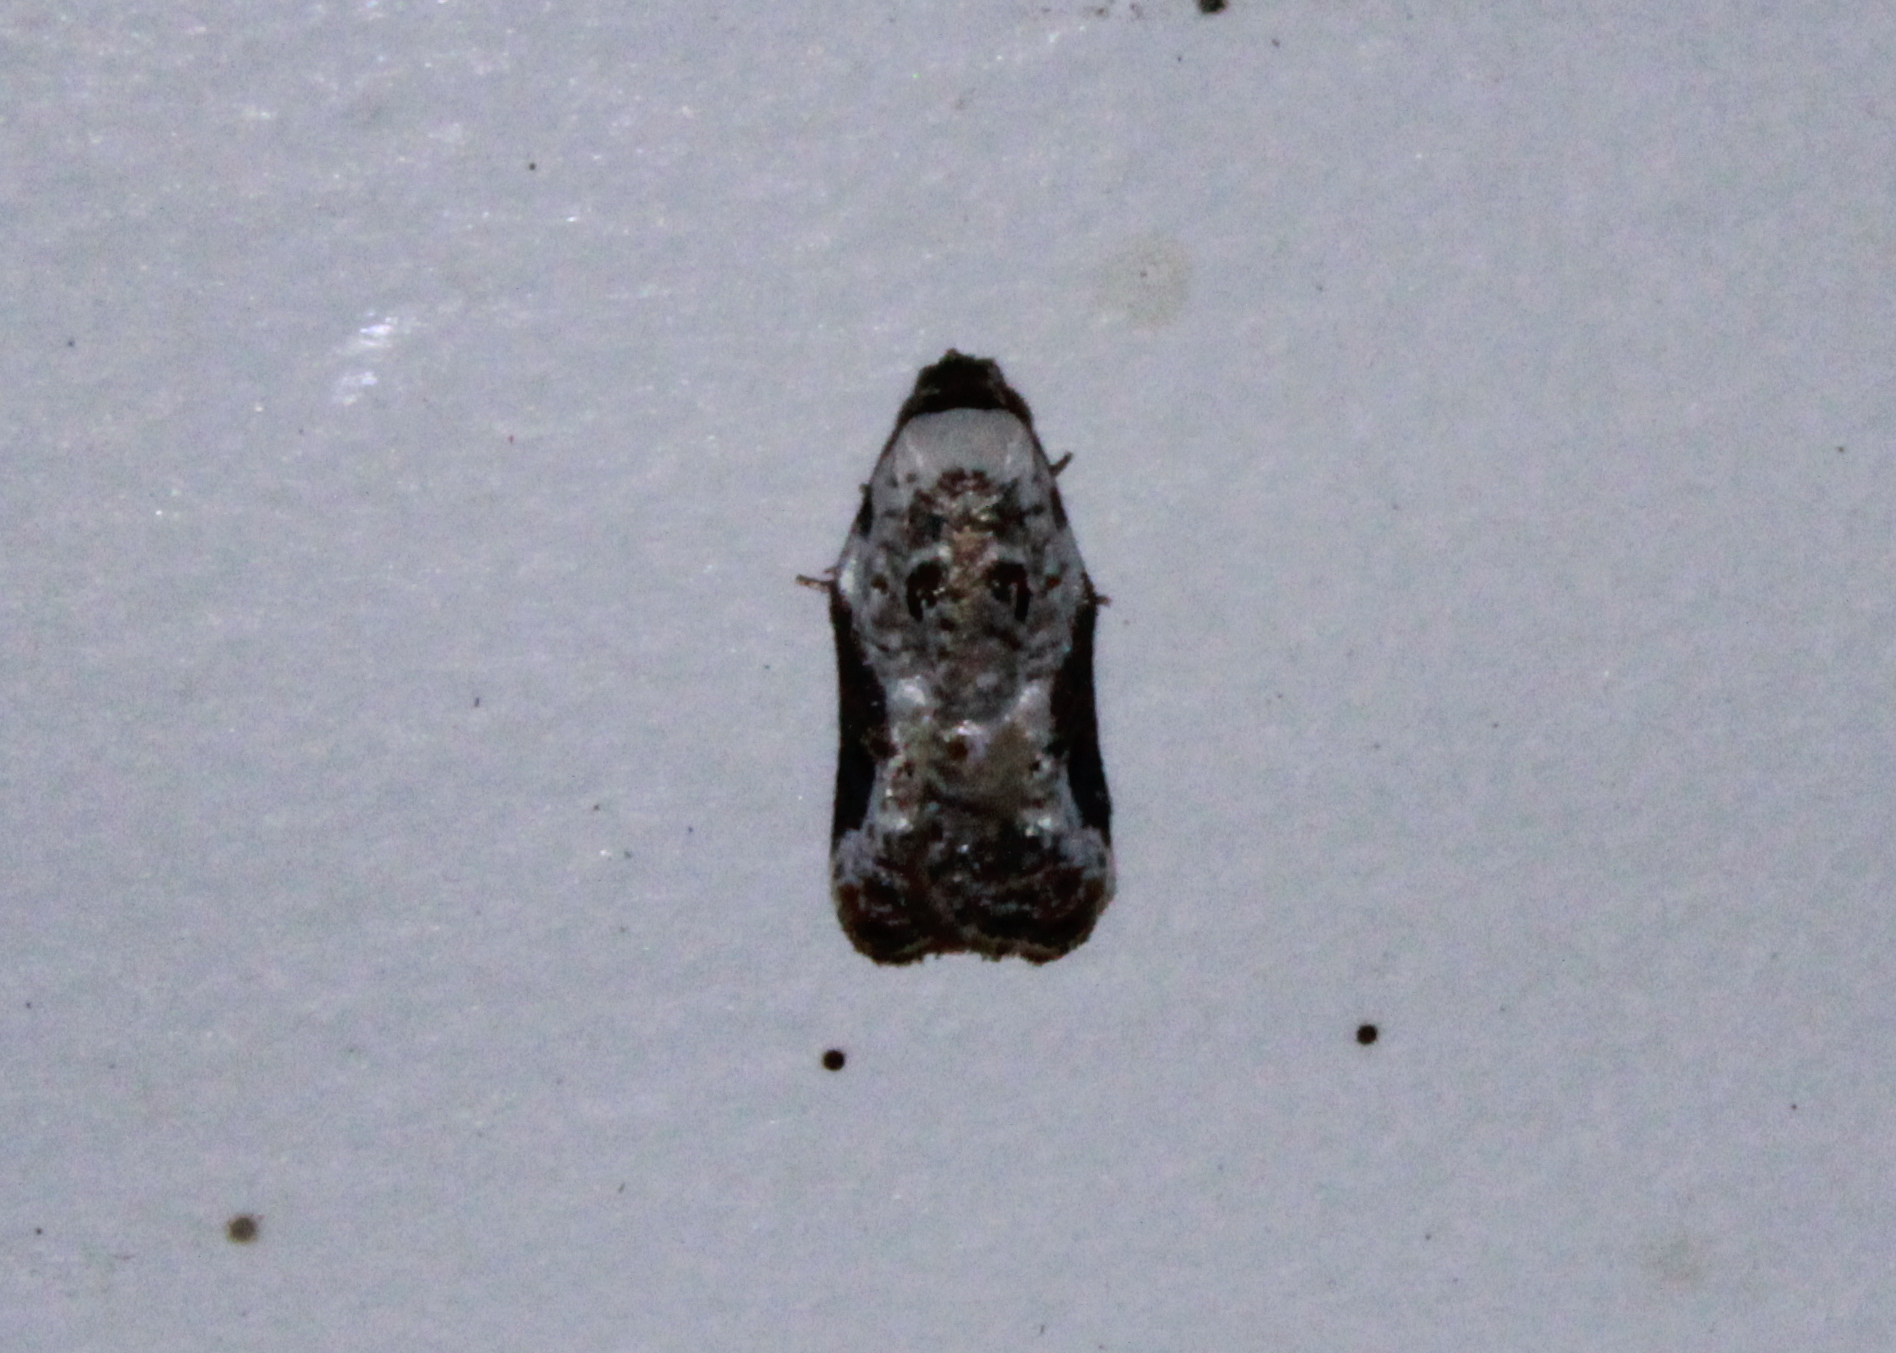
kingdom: Animalia
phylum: Arthropoda
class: Insecta
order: Lepidoptera
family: Tortricidae
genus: Acleris
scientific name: Acleris nivisellana
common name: Snowy-shouldered acleris moth
